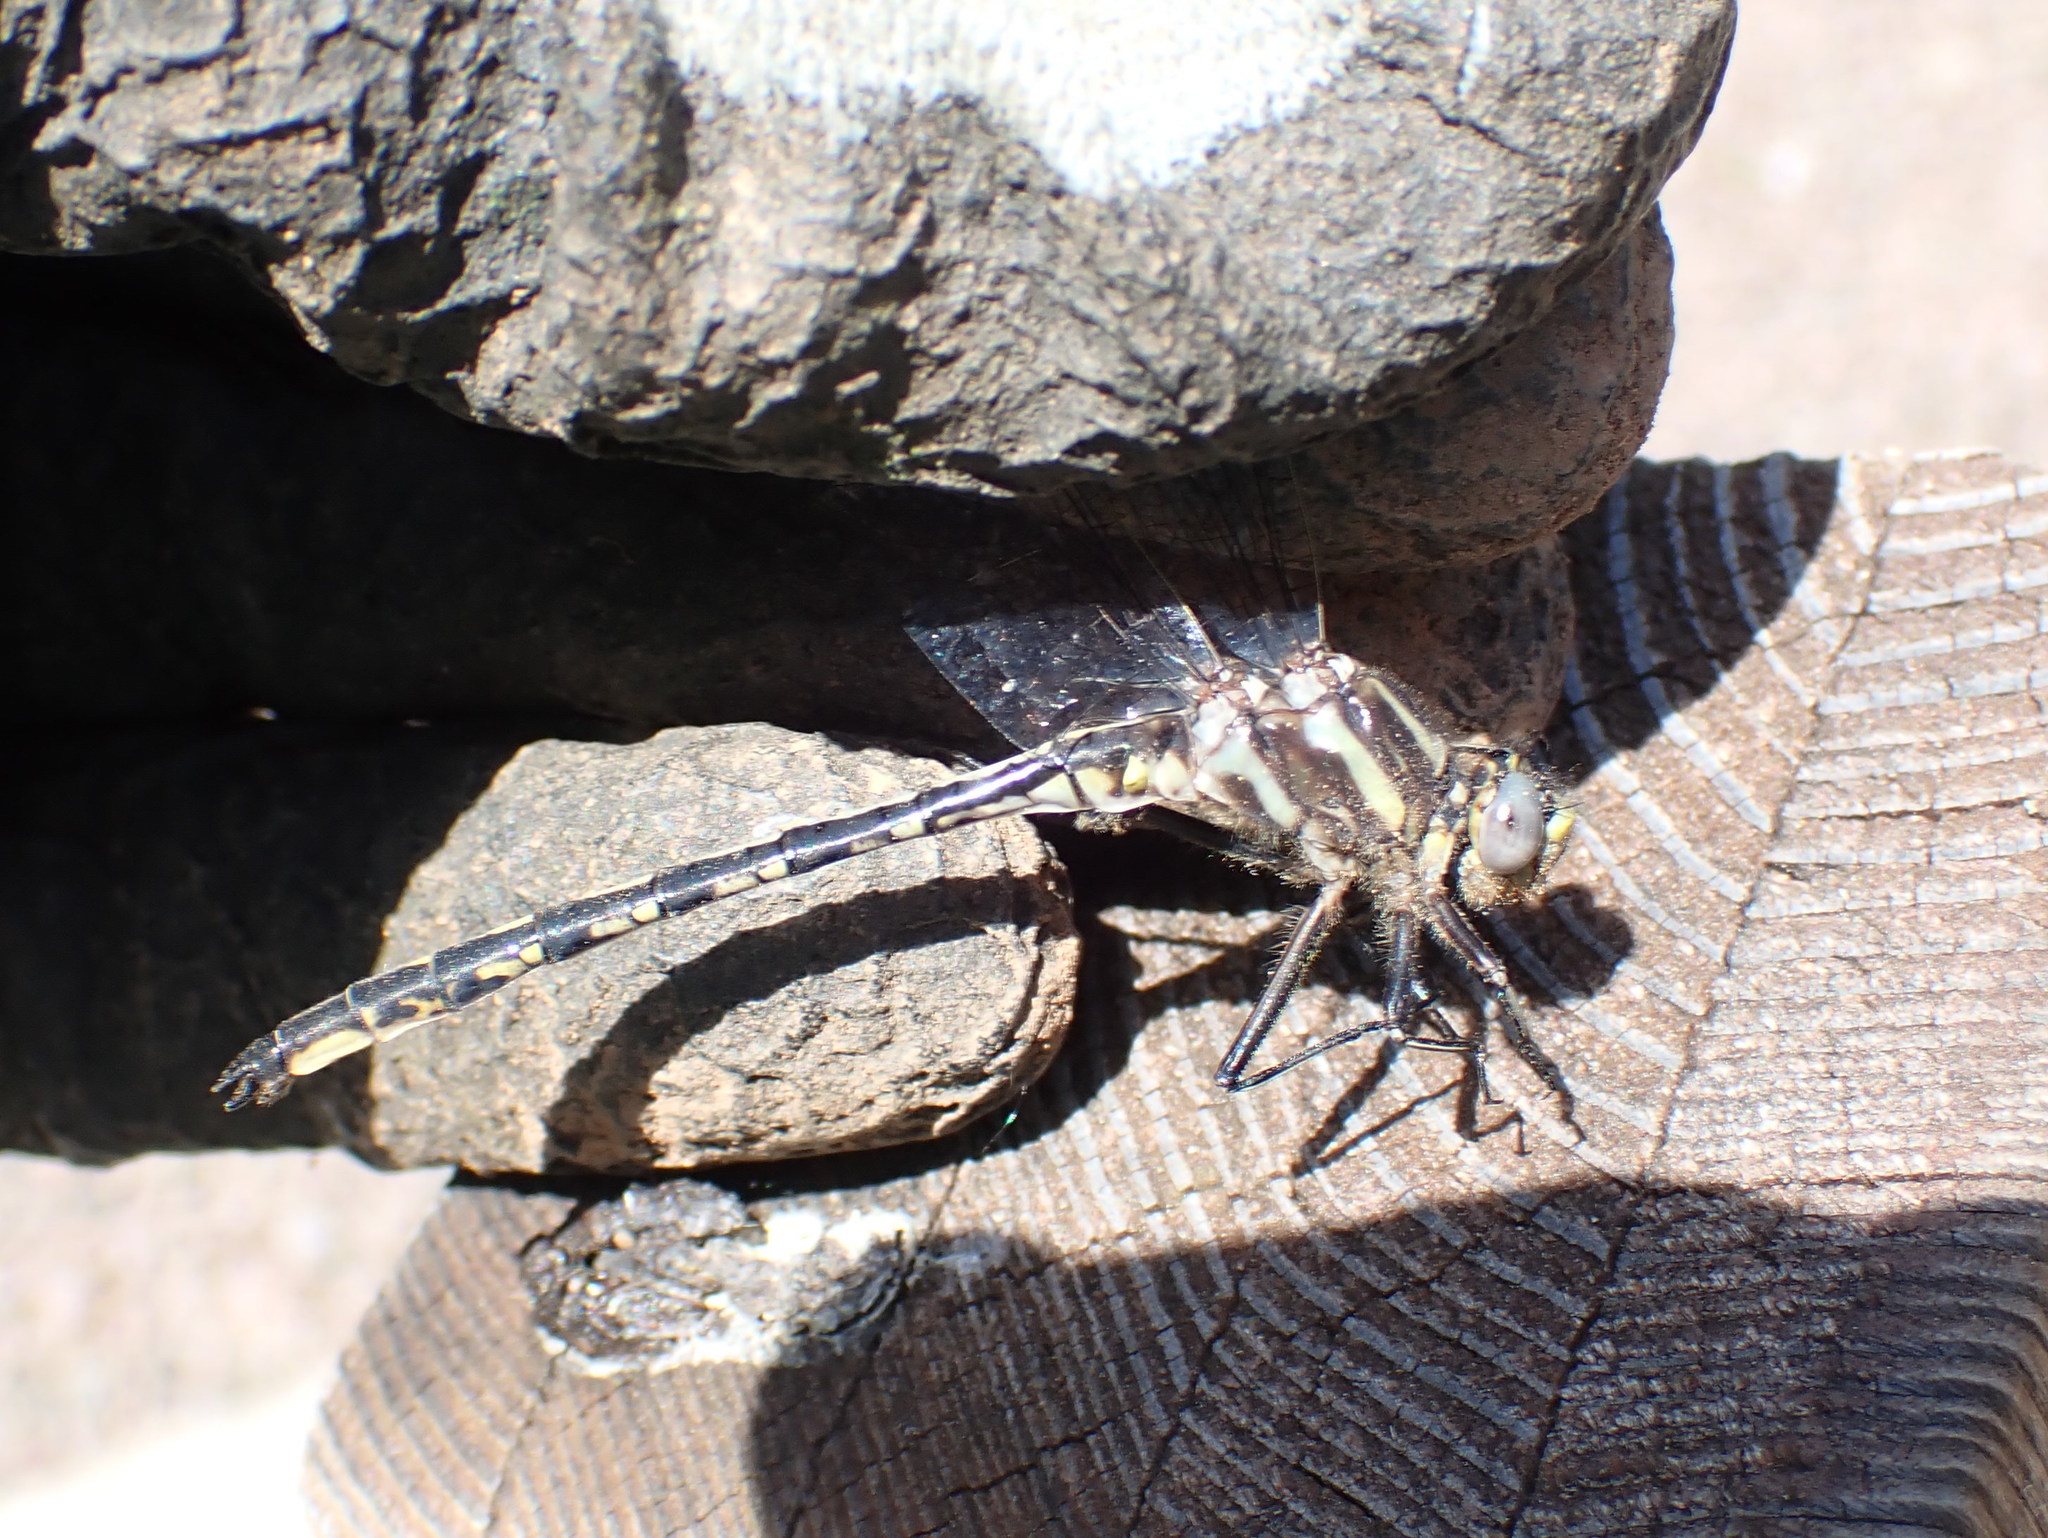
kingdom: Animalia
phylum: Arthropoda
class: Insecta
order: Odonata
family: Gomphidae
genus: Phanogomphus
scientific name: Phanogomphus spicatus
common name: Dusky clubtail
